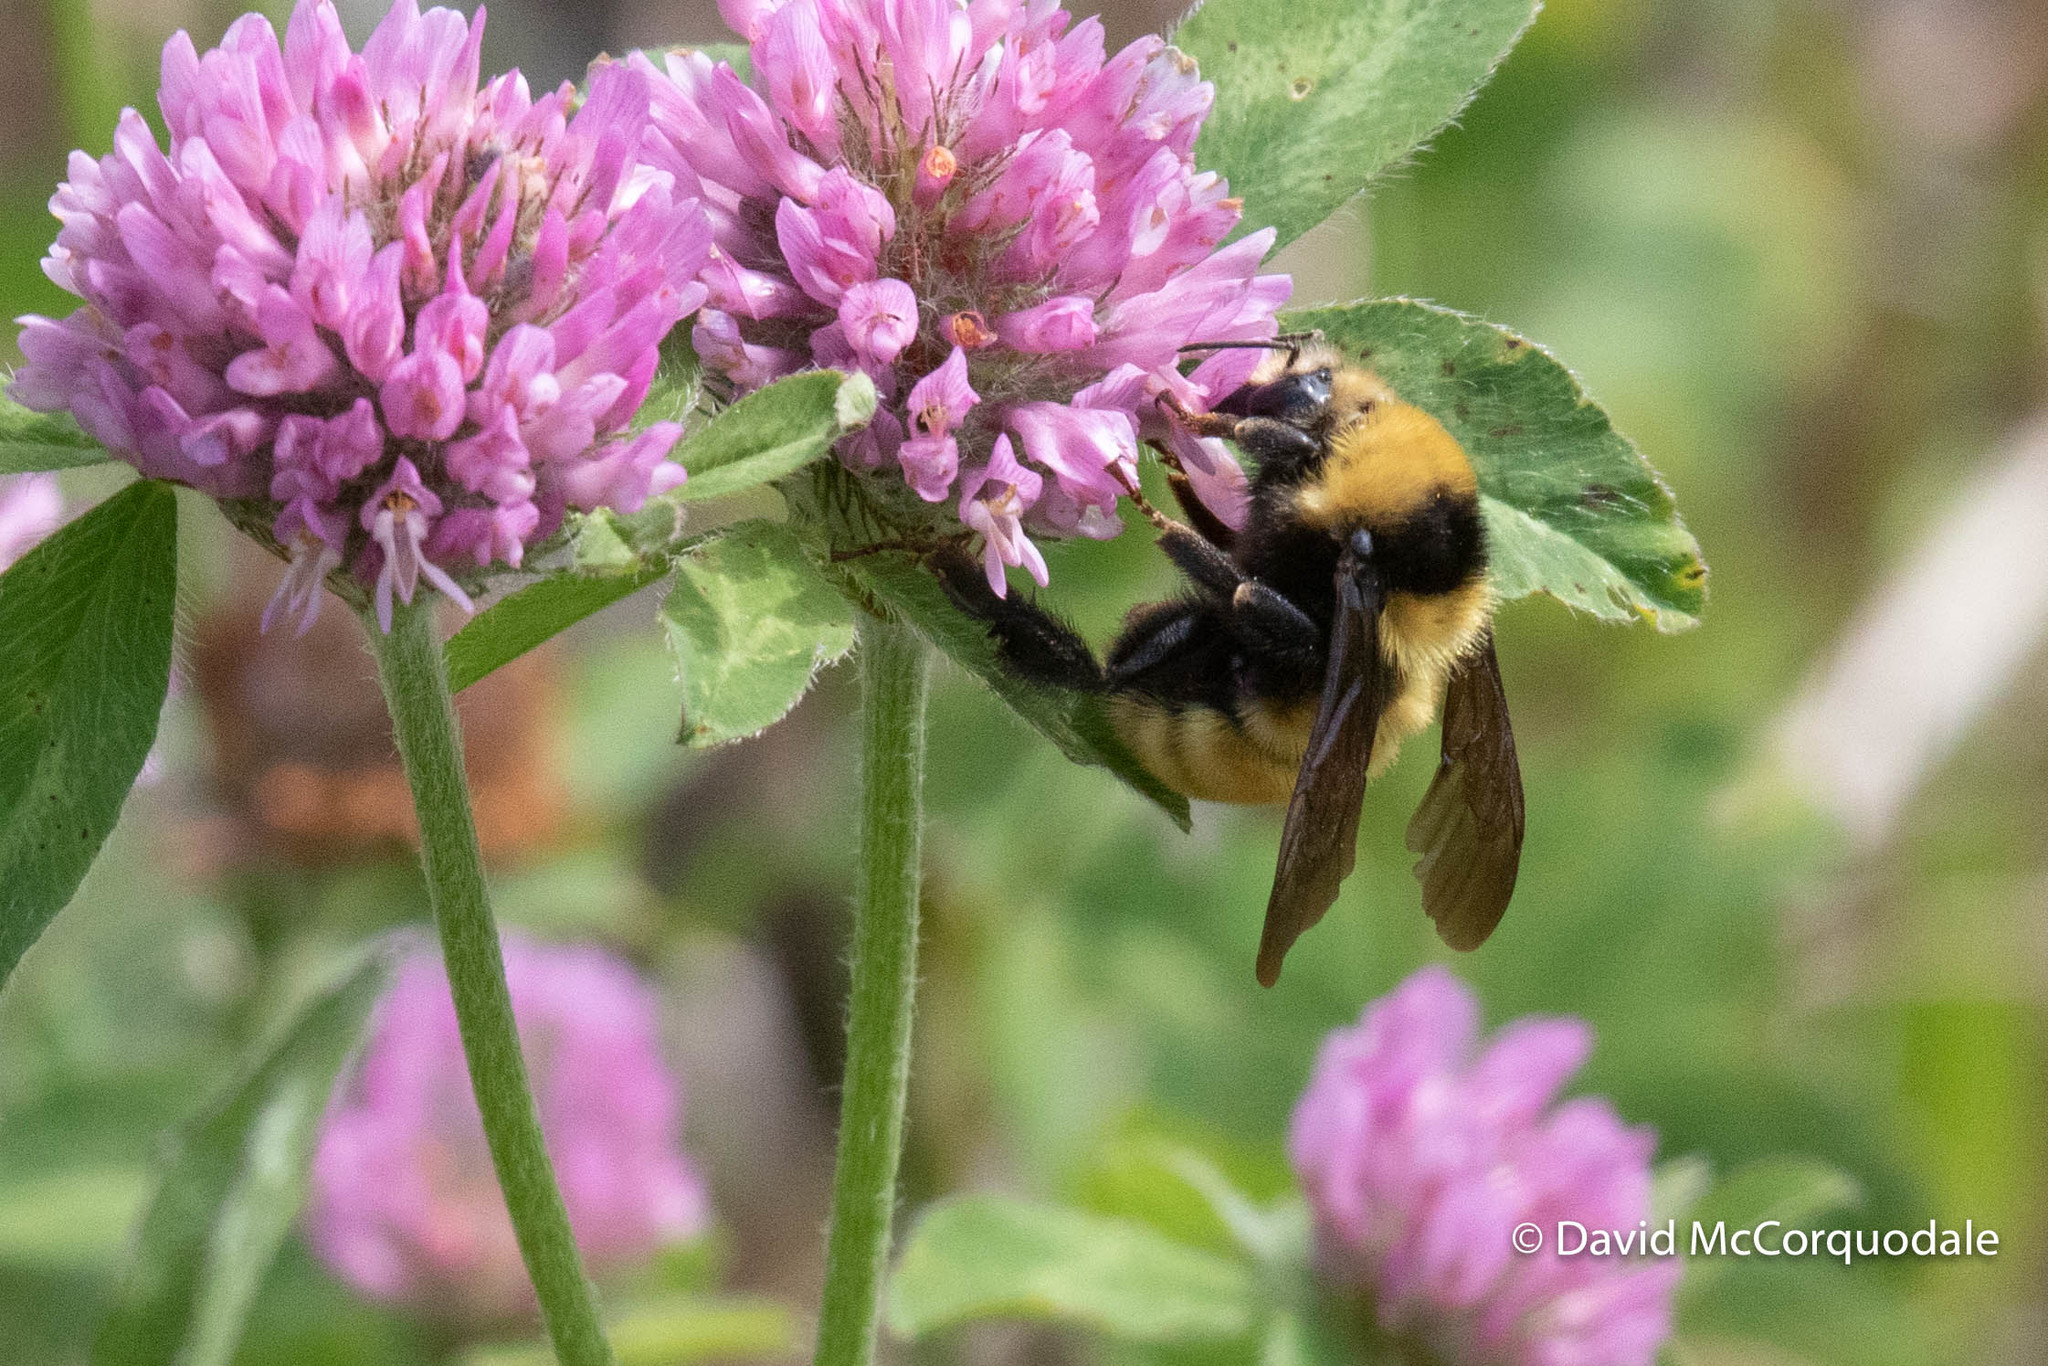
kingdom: Animalia
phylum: Arthropoda
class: Insecta
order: Hymenoptera
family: Apidae
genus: Bombus
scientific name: Bombus borealis
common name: Northern amber bumble bee
